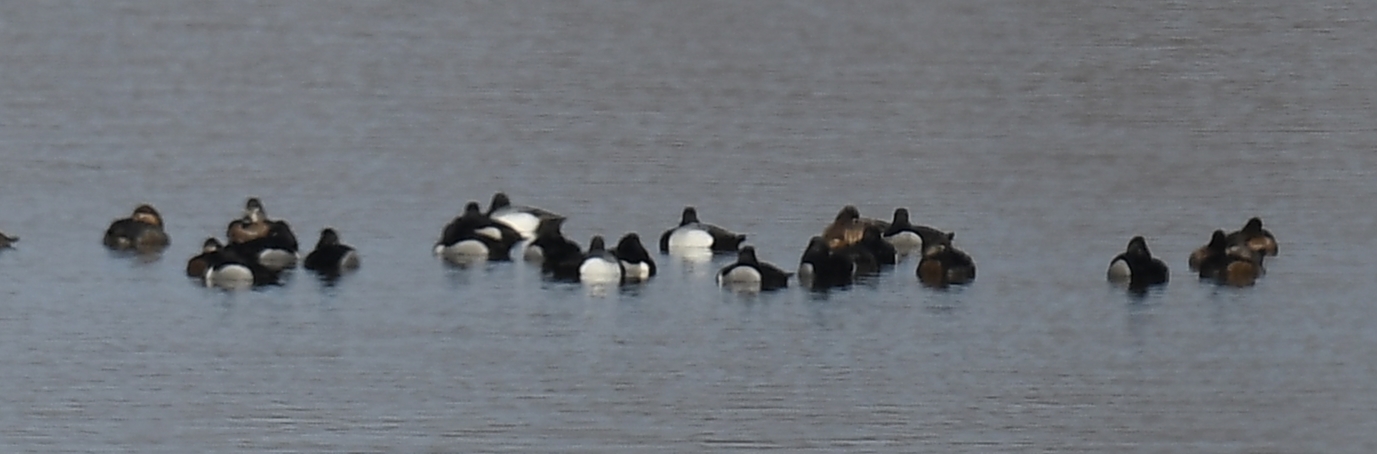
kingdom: Animalia
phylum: Chordata
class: Aves
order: Anseriformes
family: Anatidae
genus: Aythya
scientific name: Aythya collaris
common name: Ring-necked duck
